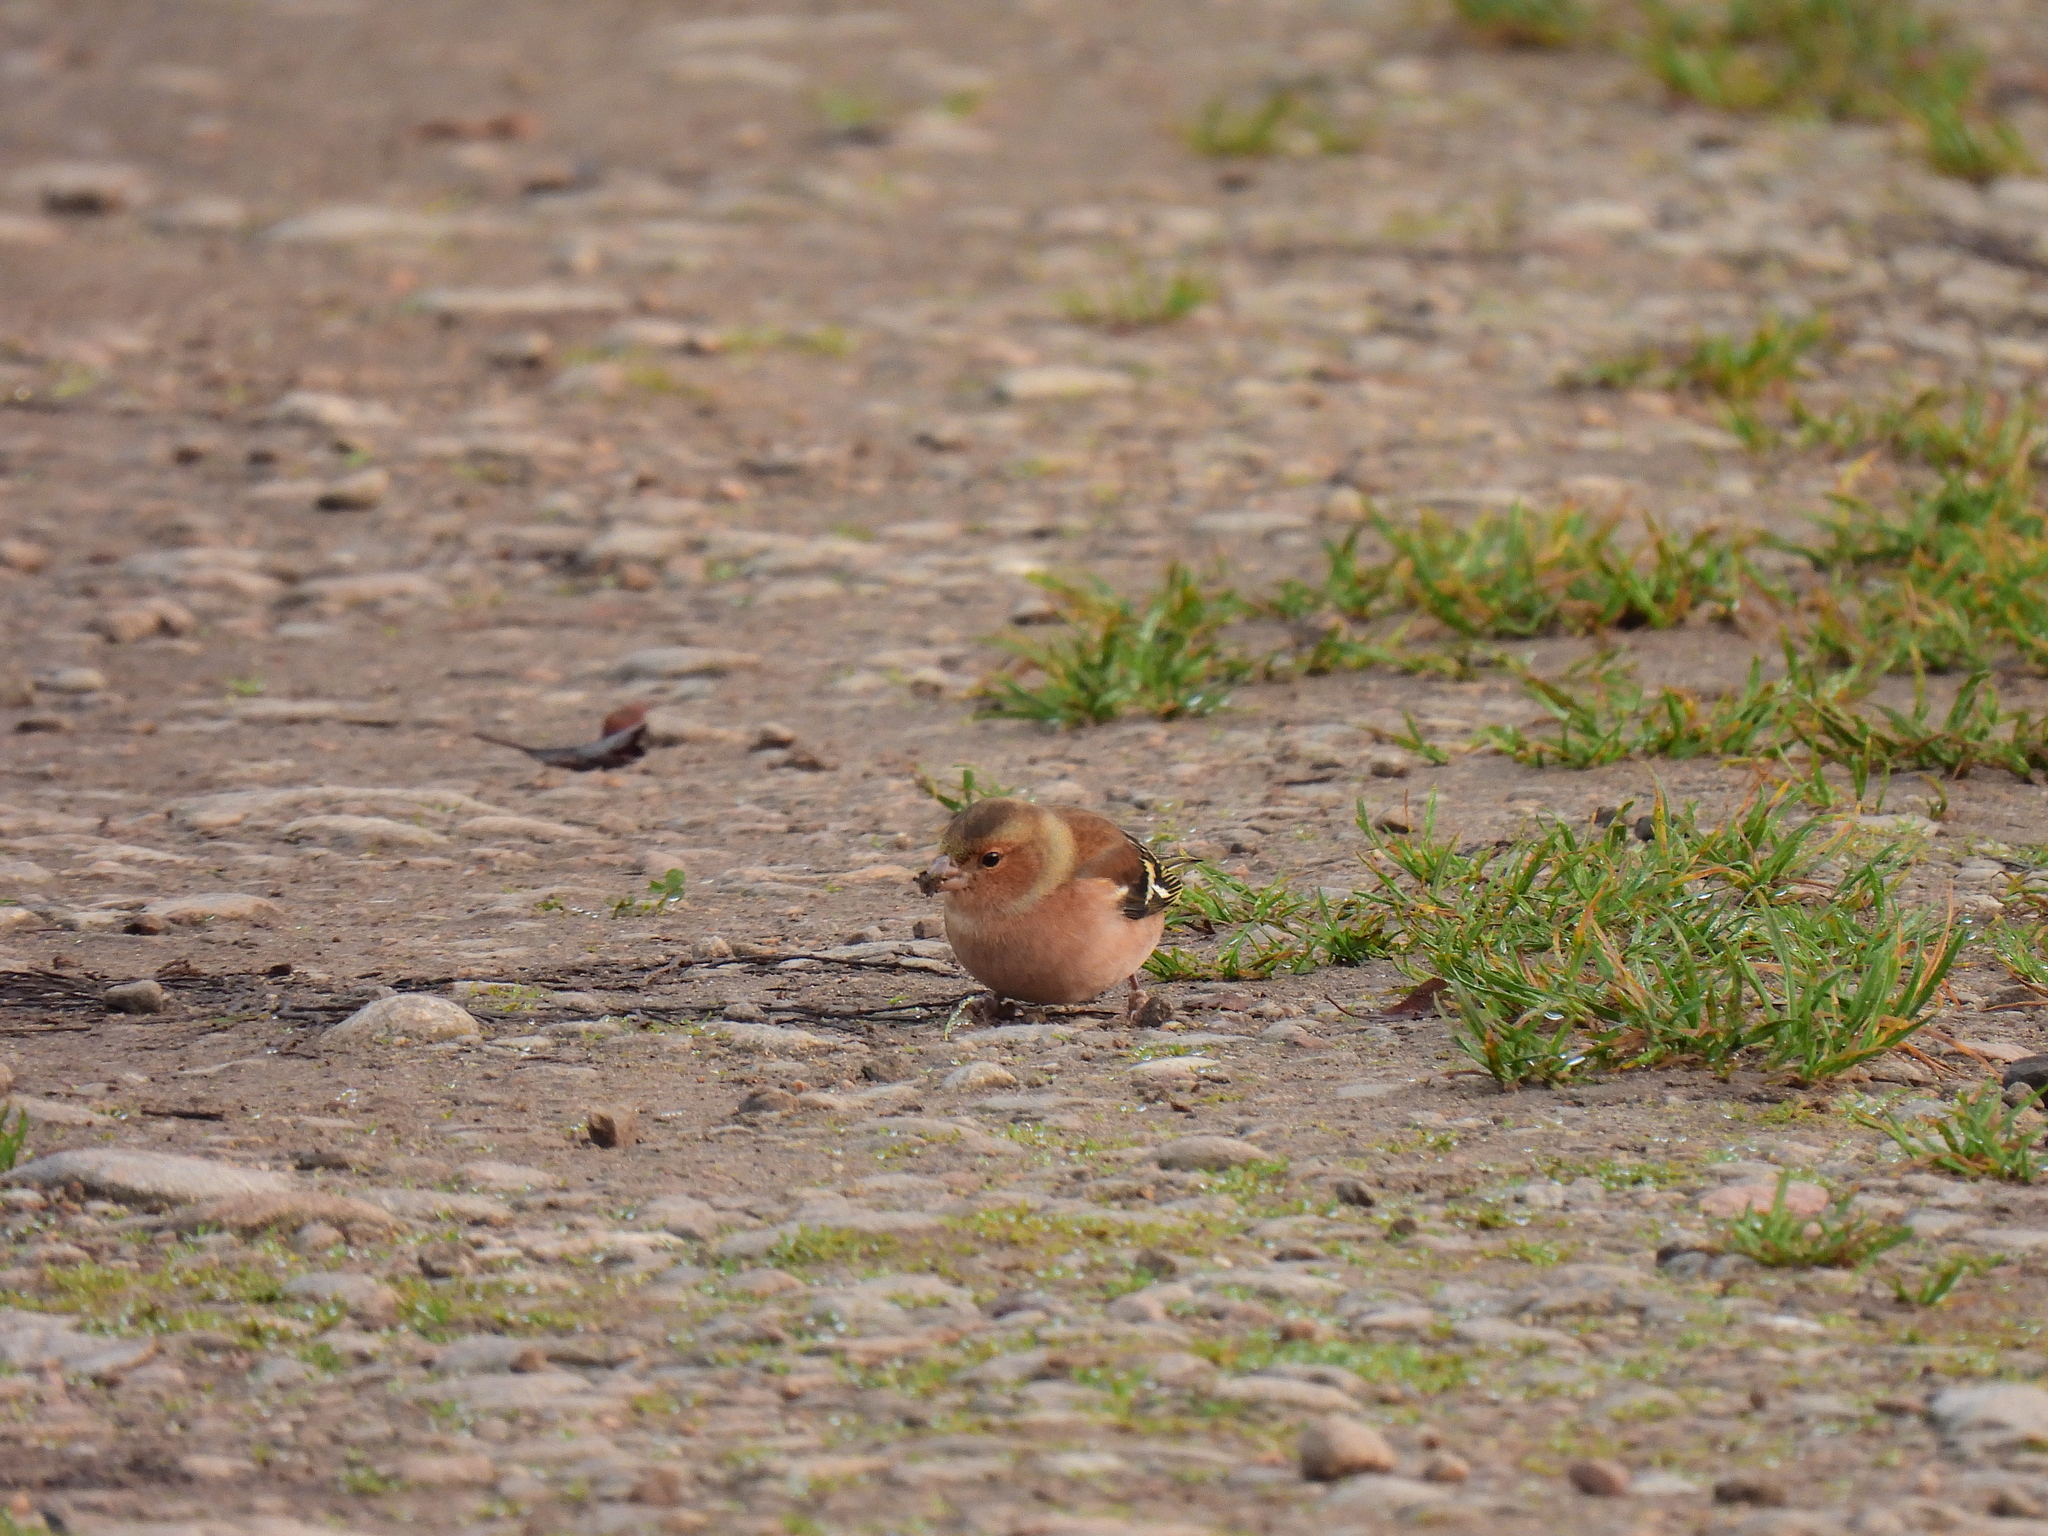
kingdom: Animalia
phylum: Chordata
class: Aves
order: Passeriformes
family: Fringillidae
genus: Fringilla
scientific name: Fringilla coelebs
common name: Common chaffinch
